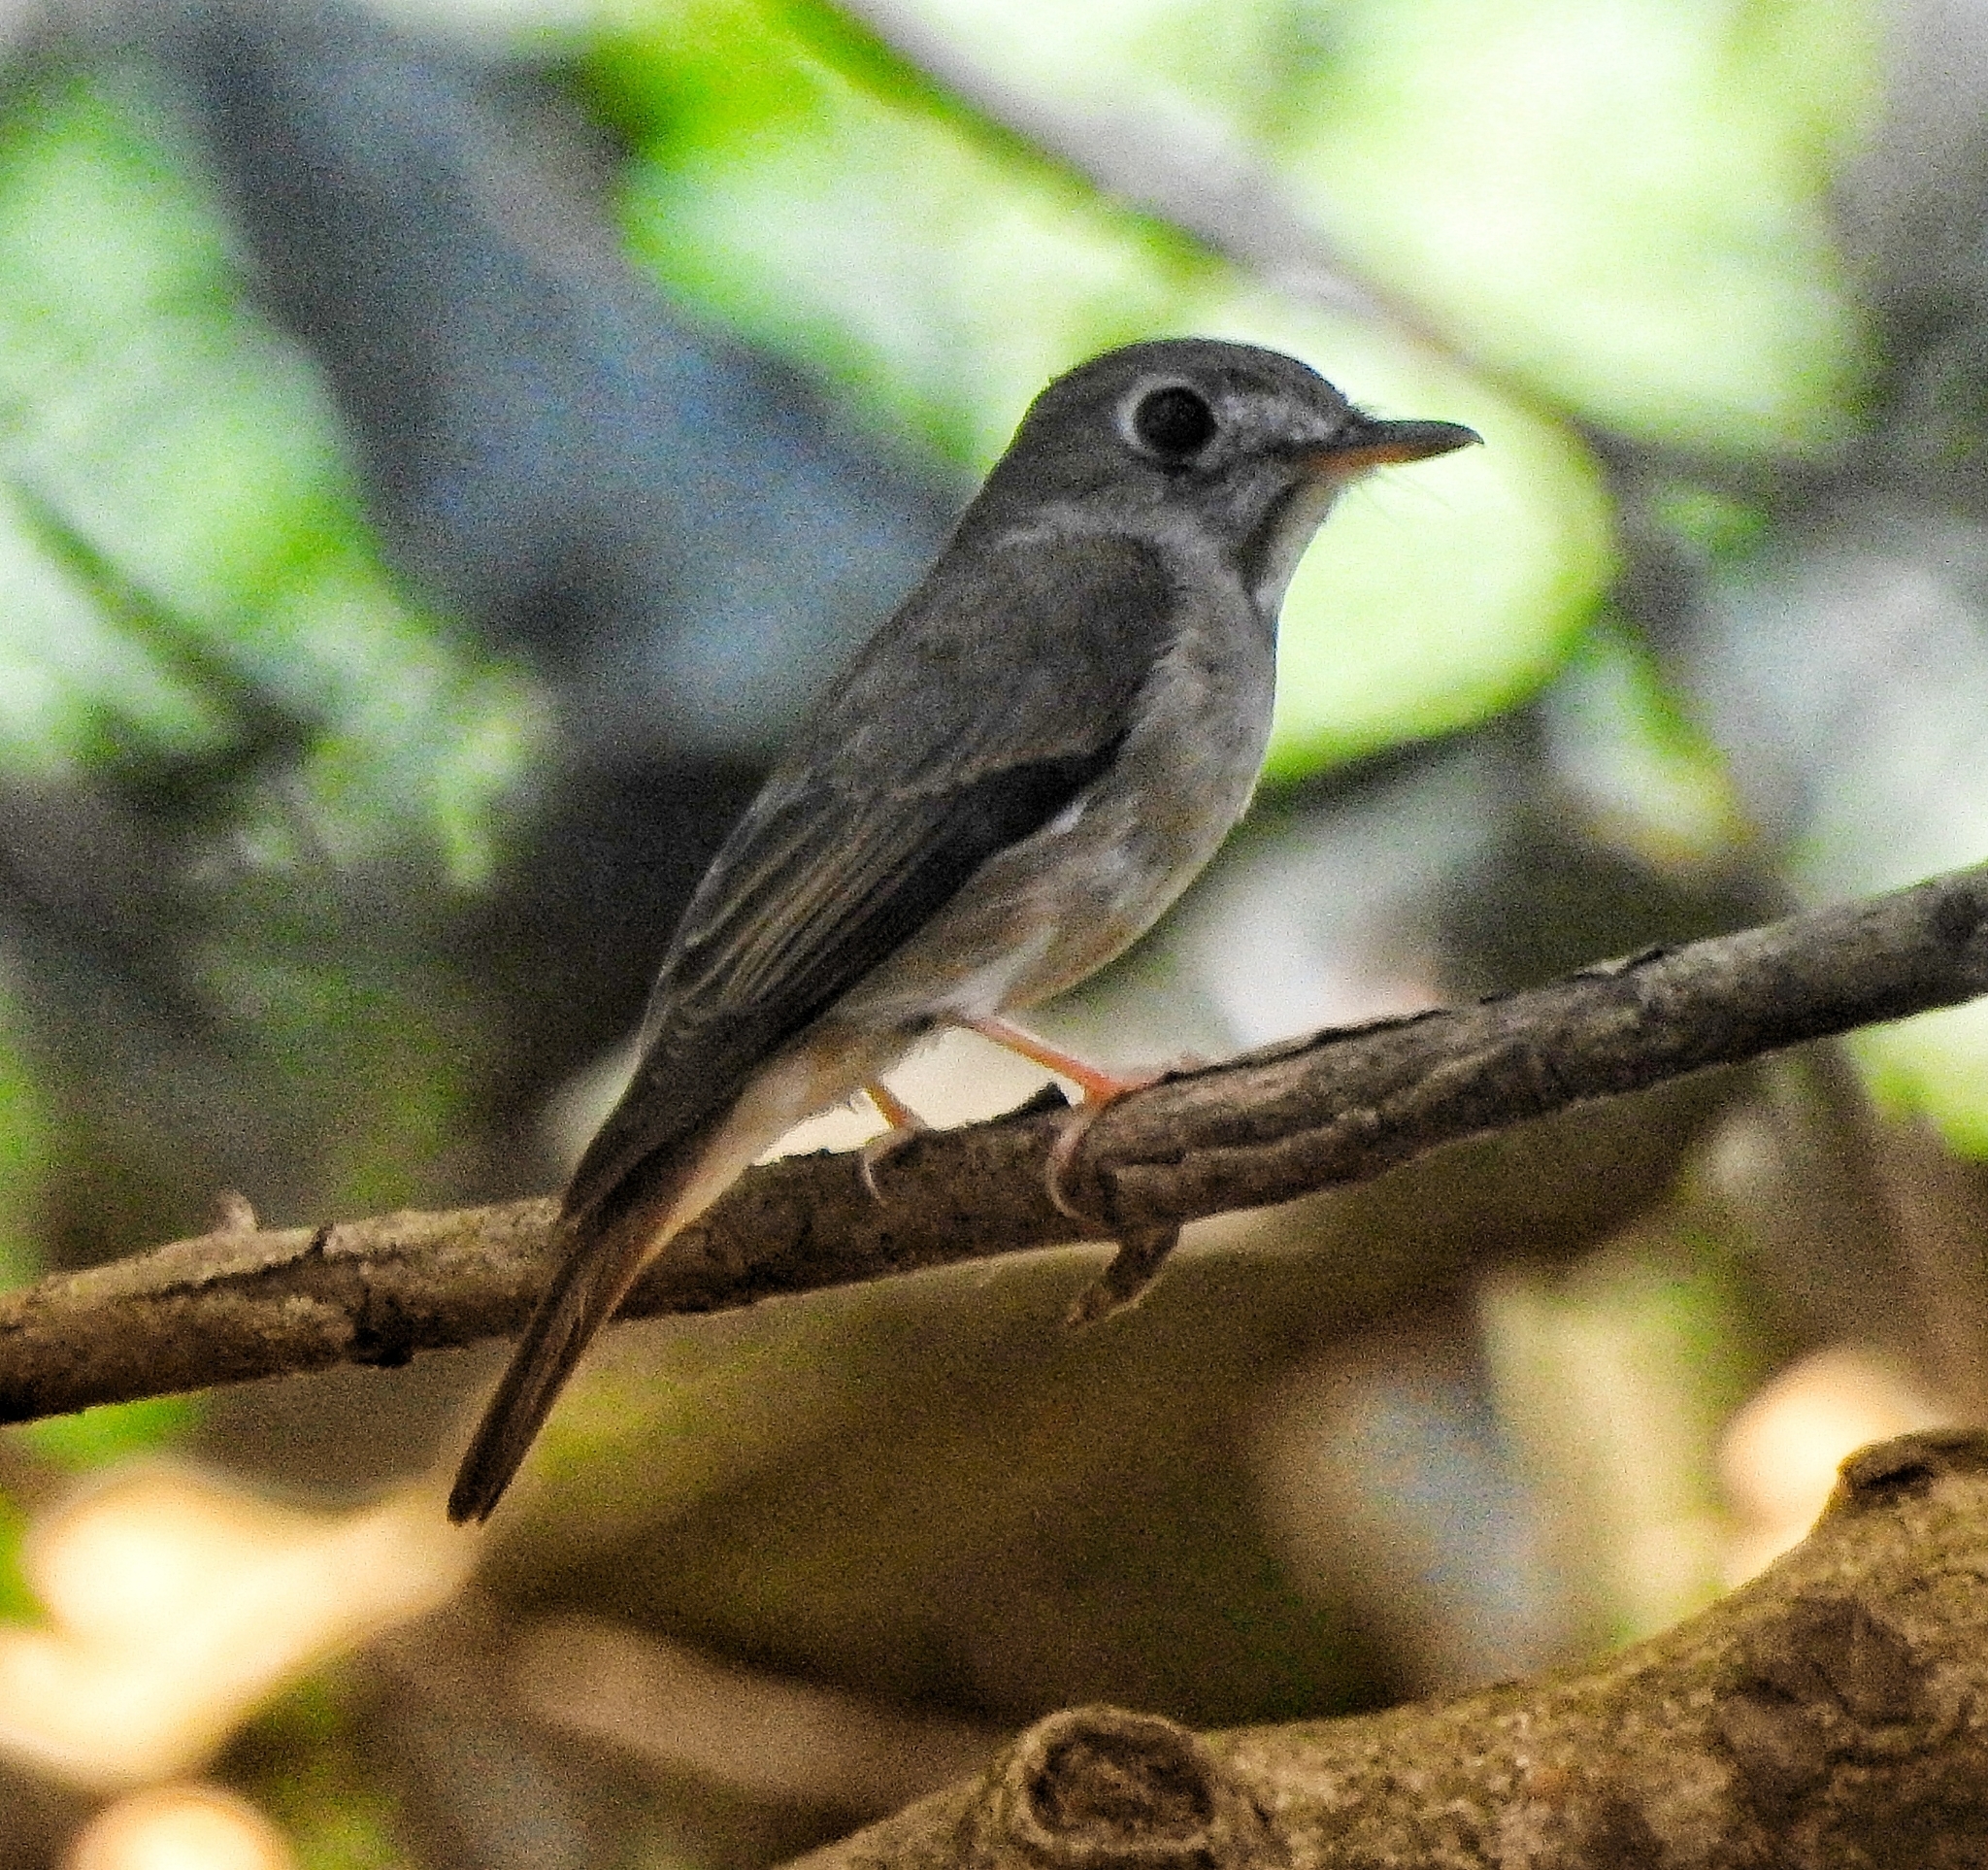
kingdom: Animalia
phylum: Chordata
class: Aves
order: Passeriformes
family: Muscicapidae
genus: Muscicapa
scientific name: Muscicapa muttui
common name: Brown-breasted flycatcher
